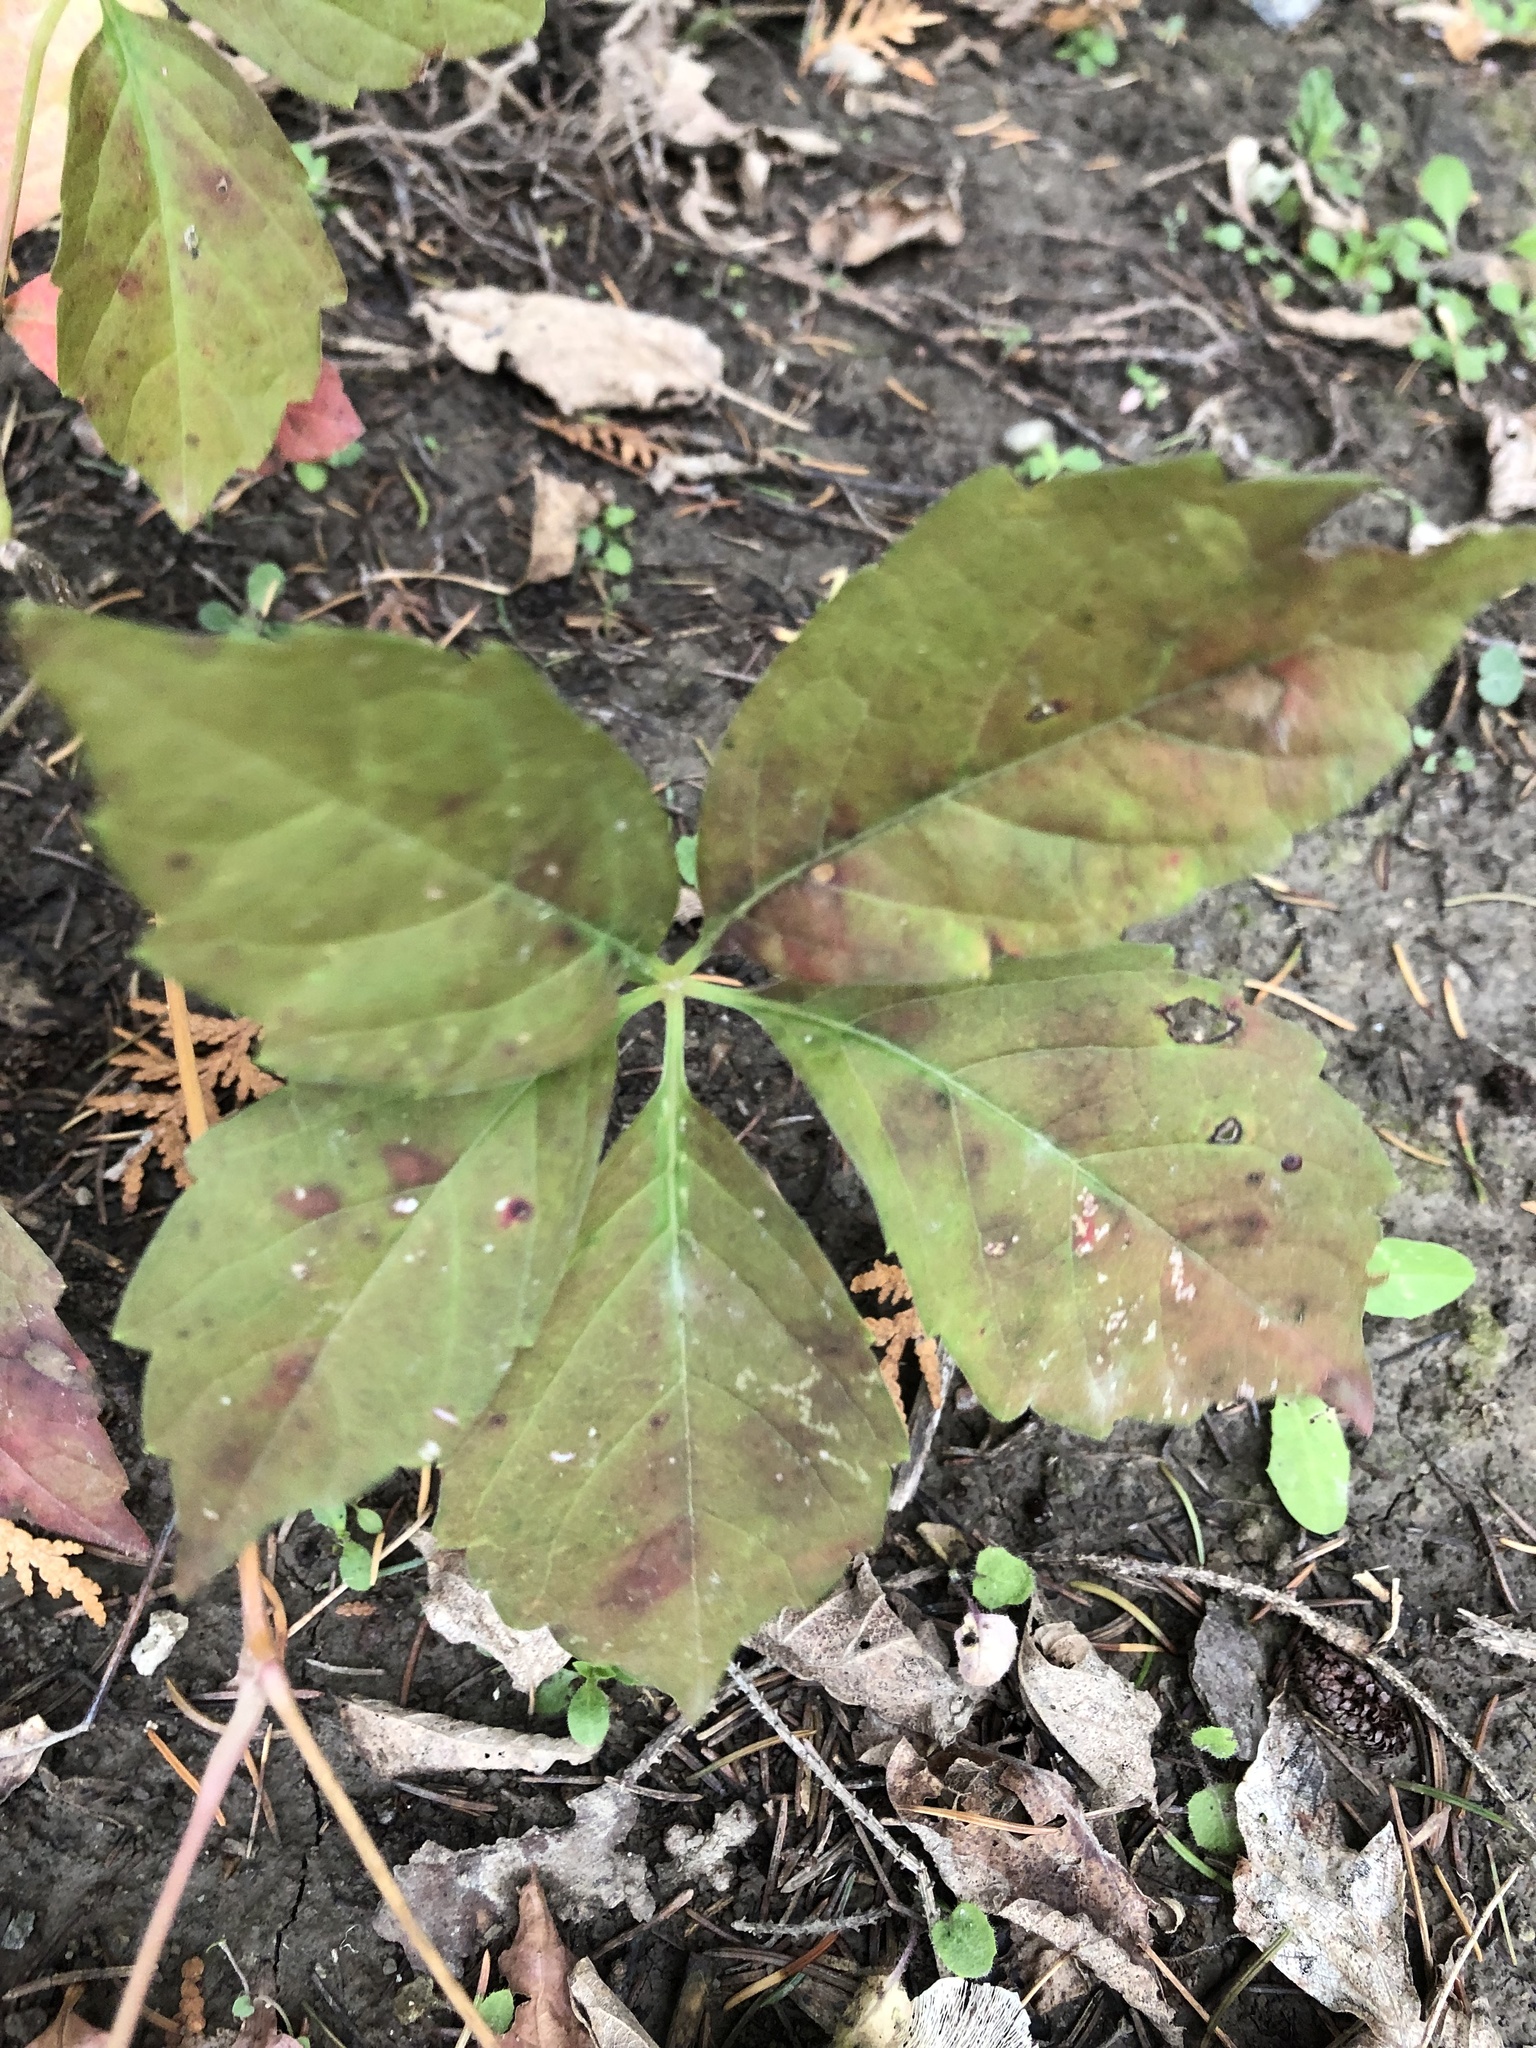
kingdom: Plantae
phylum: Tracheophyta
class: Magnoliopsida
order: Vitales
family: Vitaceae
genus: Parthenocissus
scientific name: Parthenocissus quinquefolia
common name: Virginia-creeper
